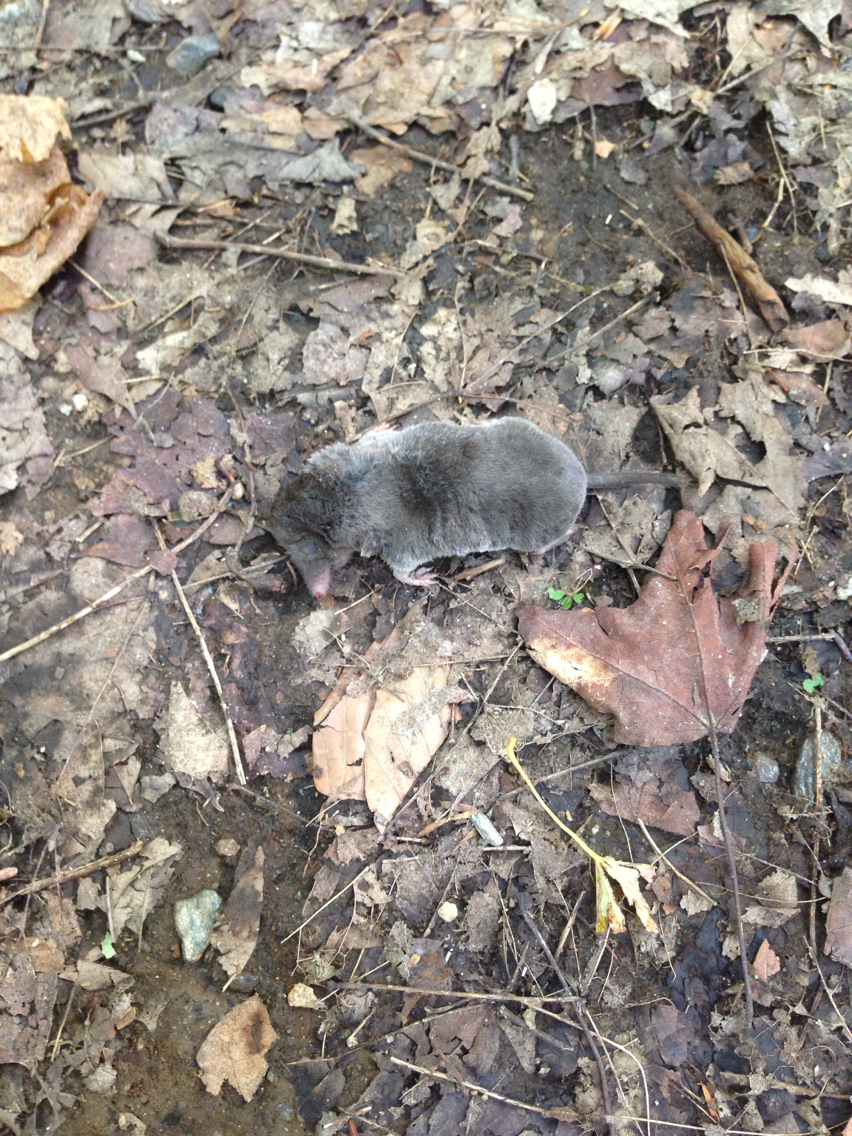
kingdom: Animalia
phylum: Chordata
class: Mammalia
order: Soricomorpha
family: Soricidae
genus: Blarina
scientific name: Blarina brevicauda
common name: Northern short-tailed shrew
